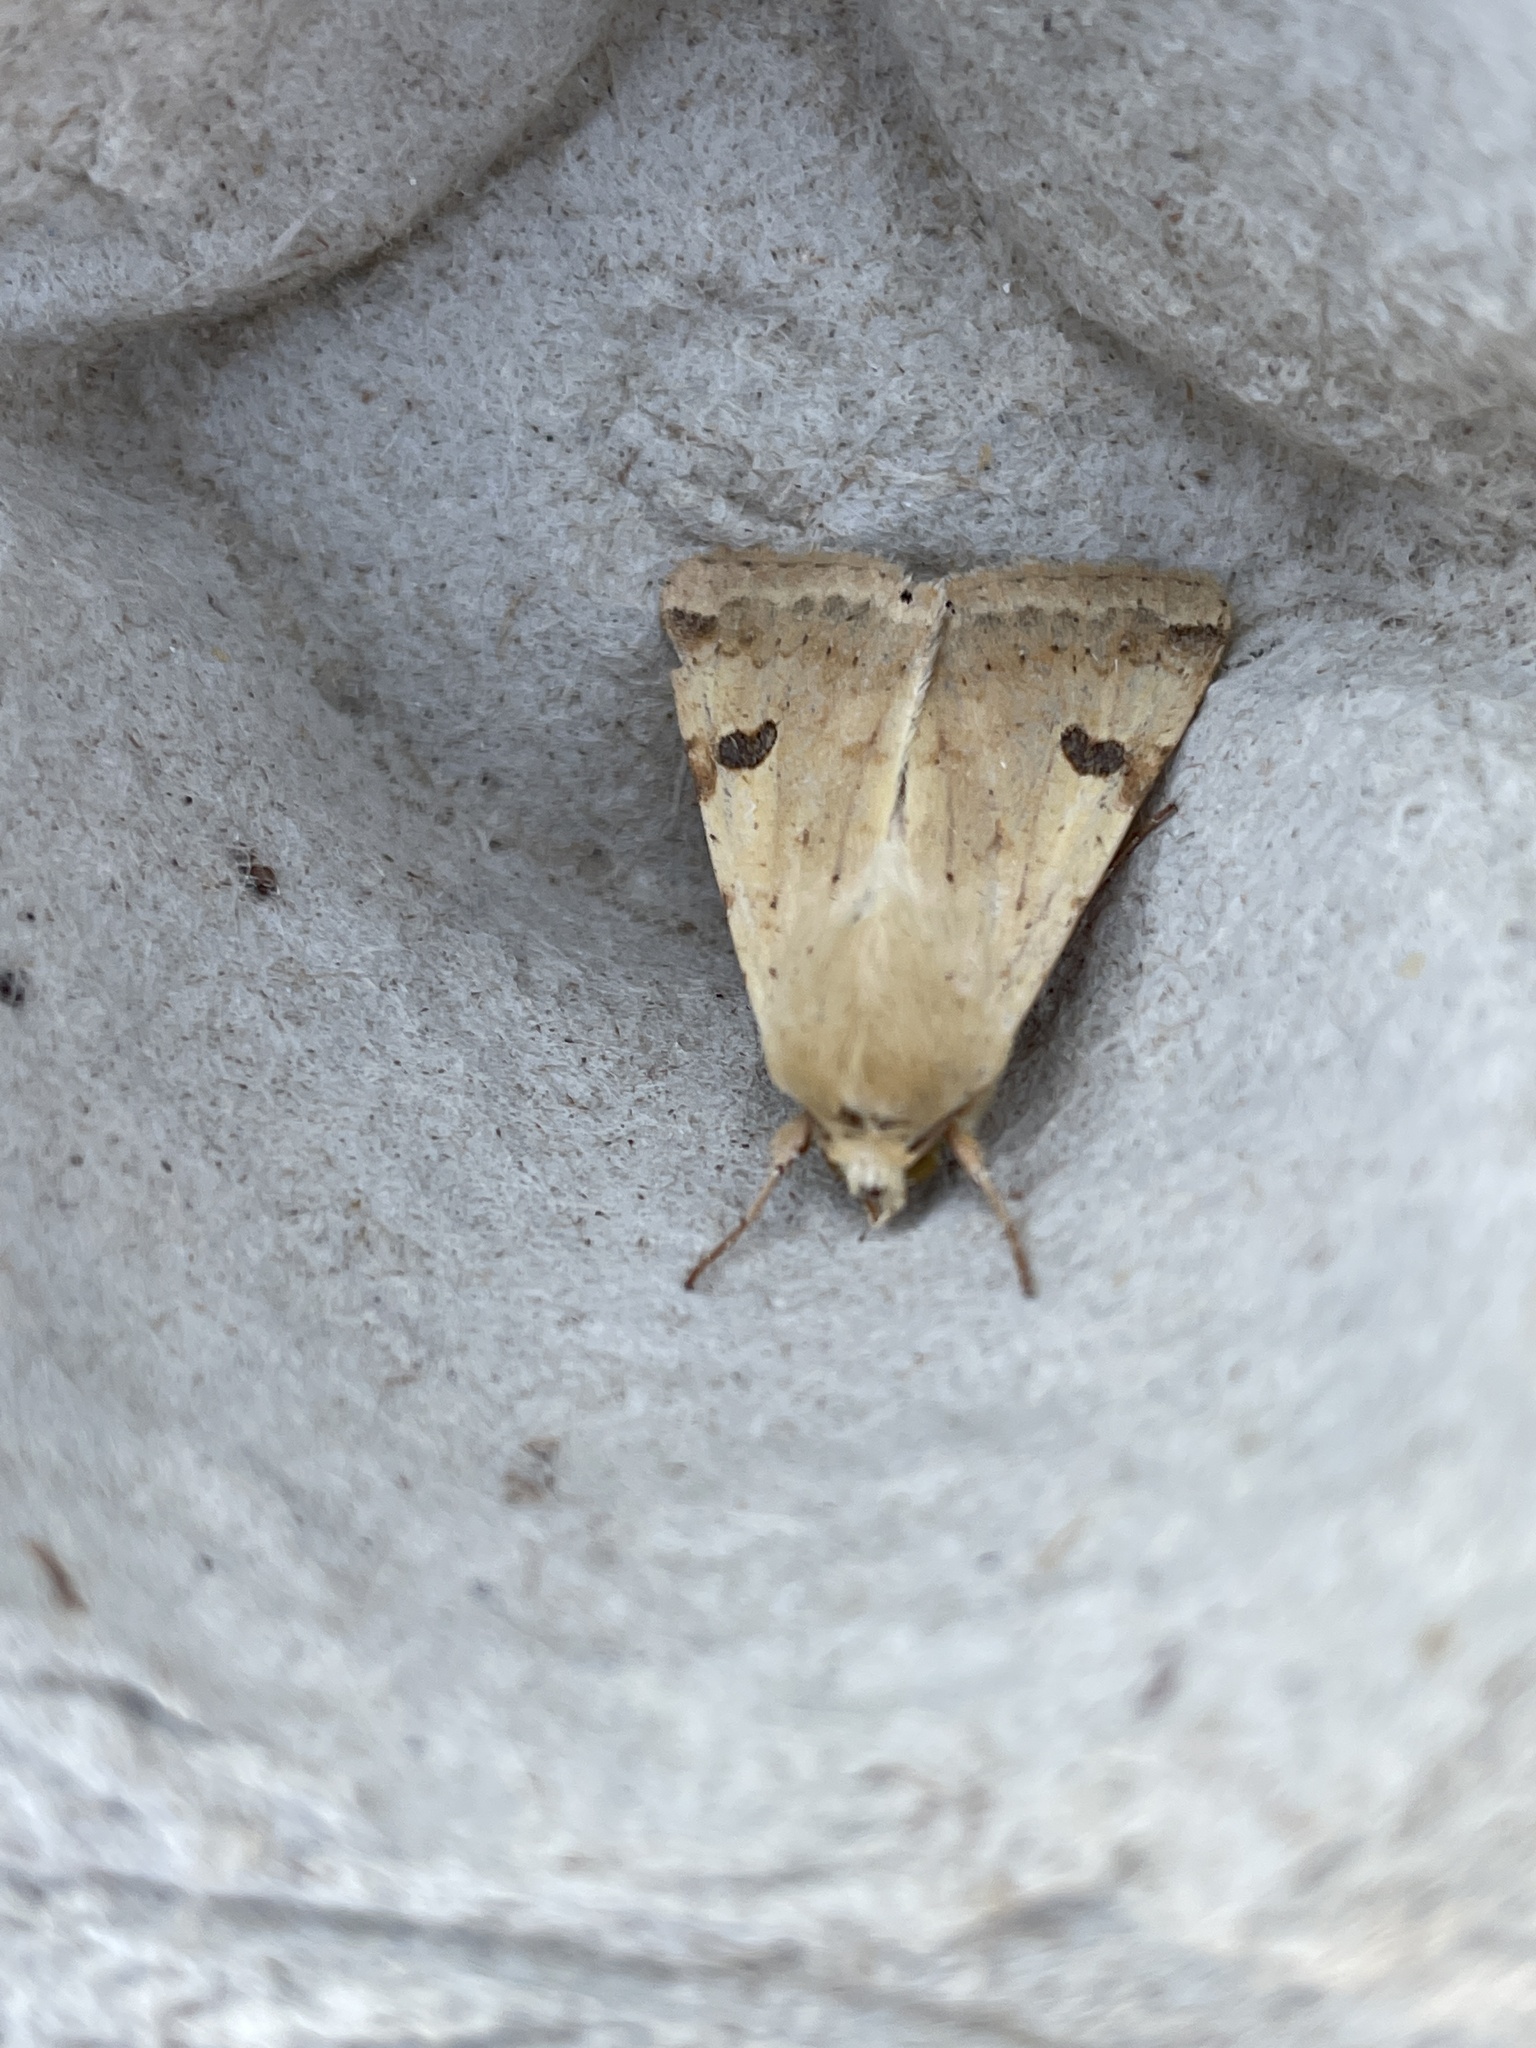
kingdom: Animalia
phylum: Arthropoda
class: Insecta
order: Lepidoptera
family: Noctuidae
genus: Heliothis
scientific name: Heliothis peltigera
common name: Bordered straw
